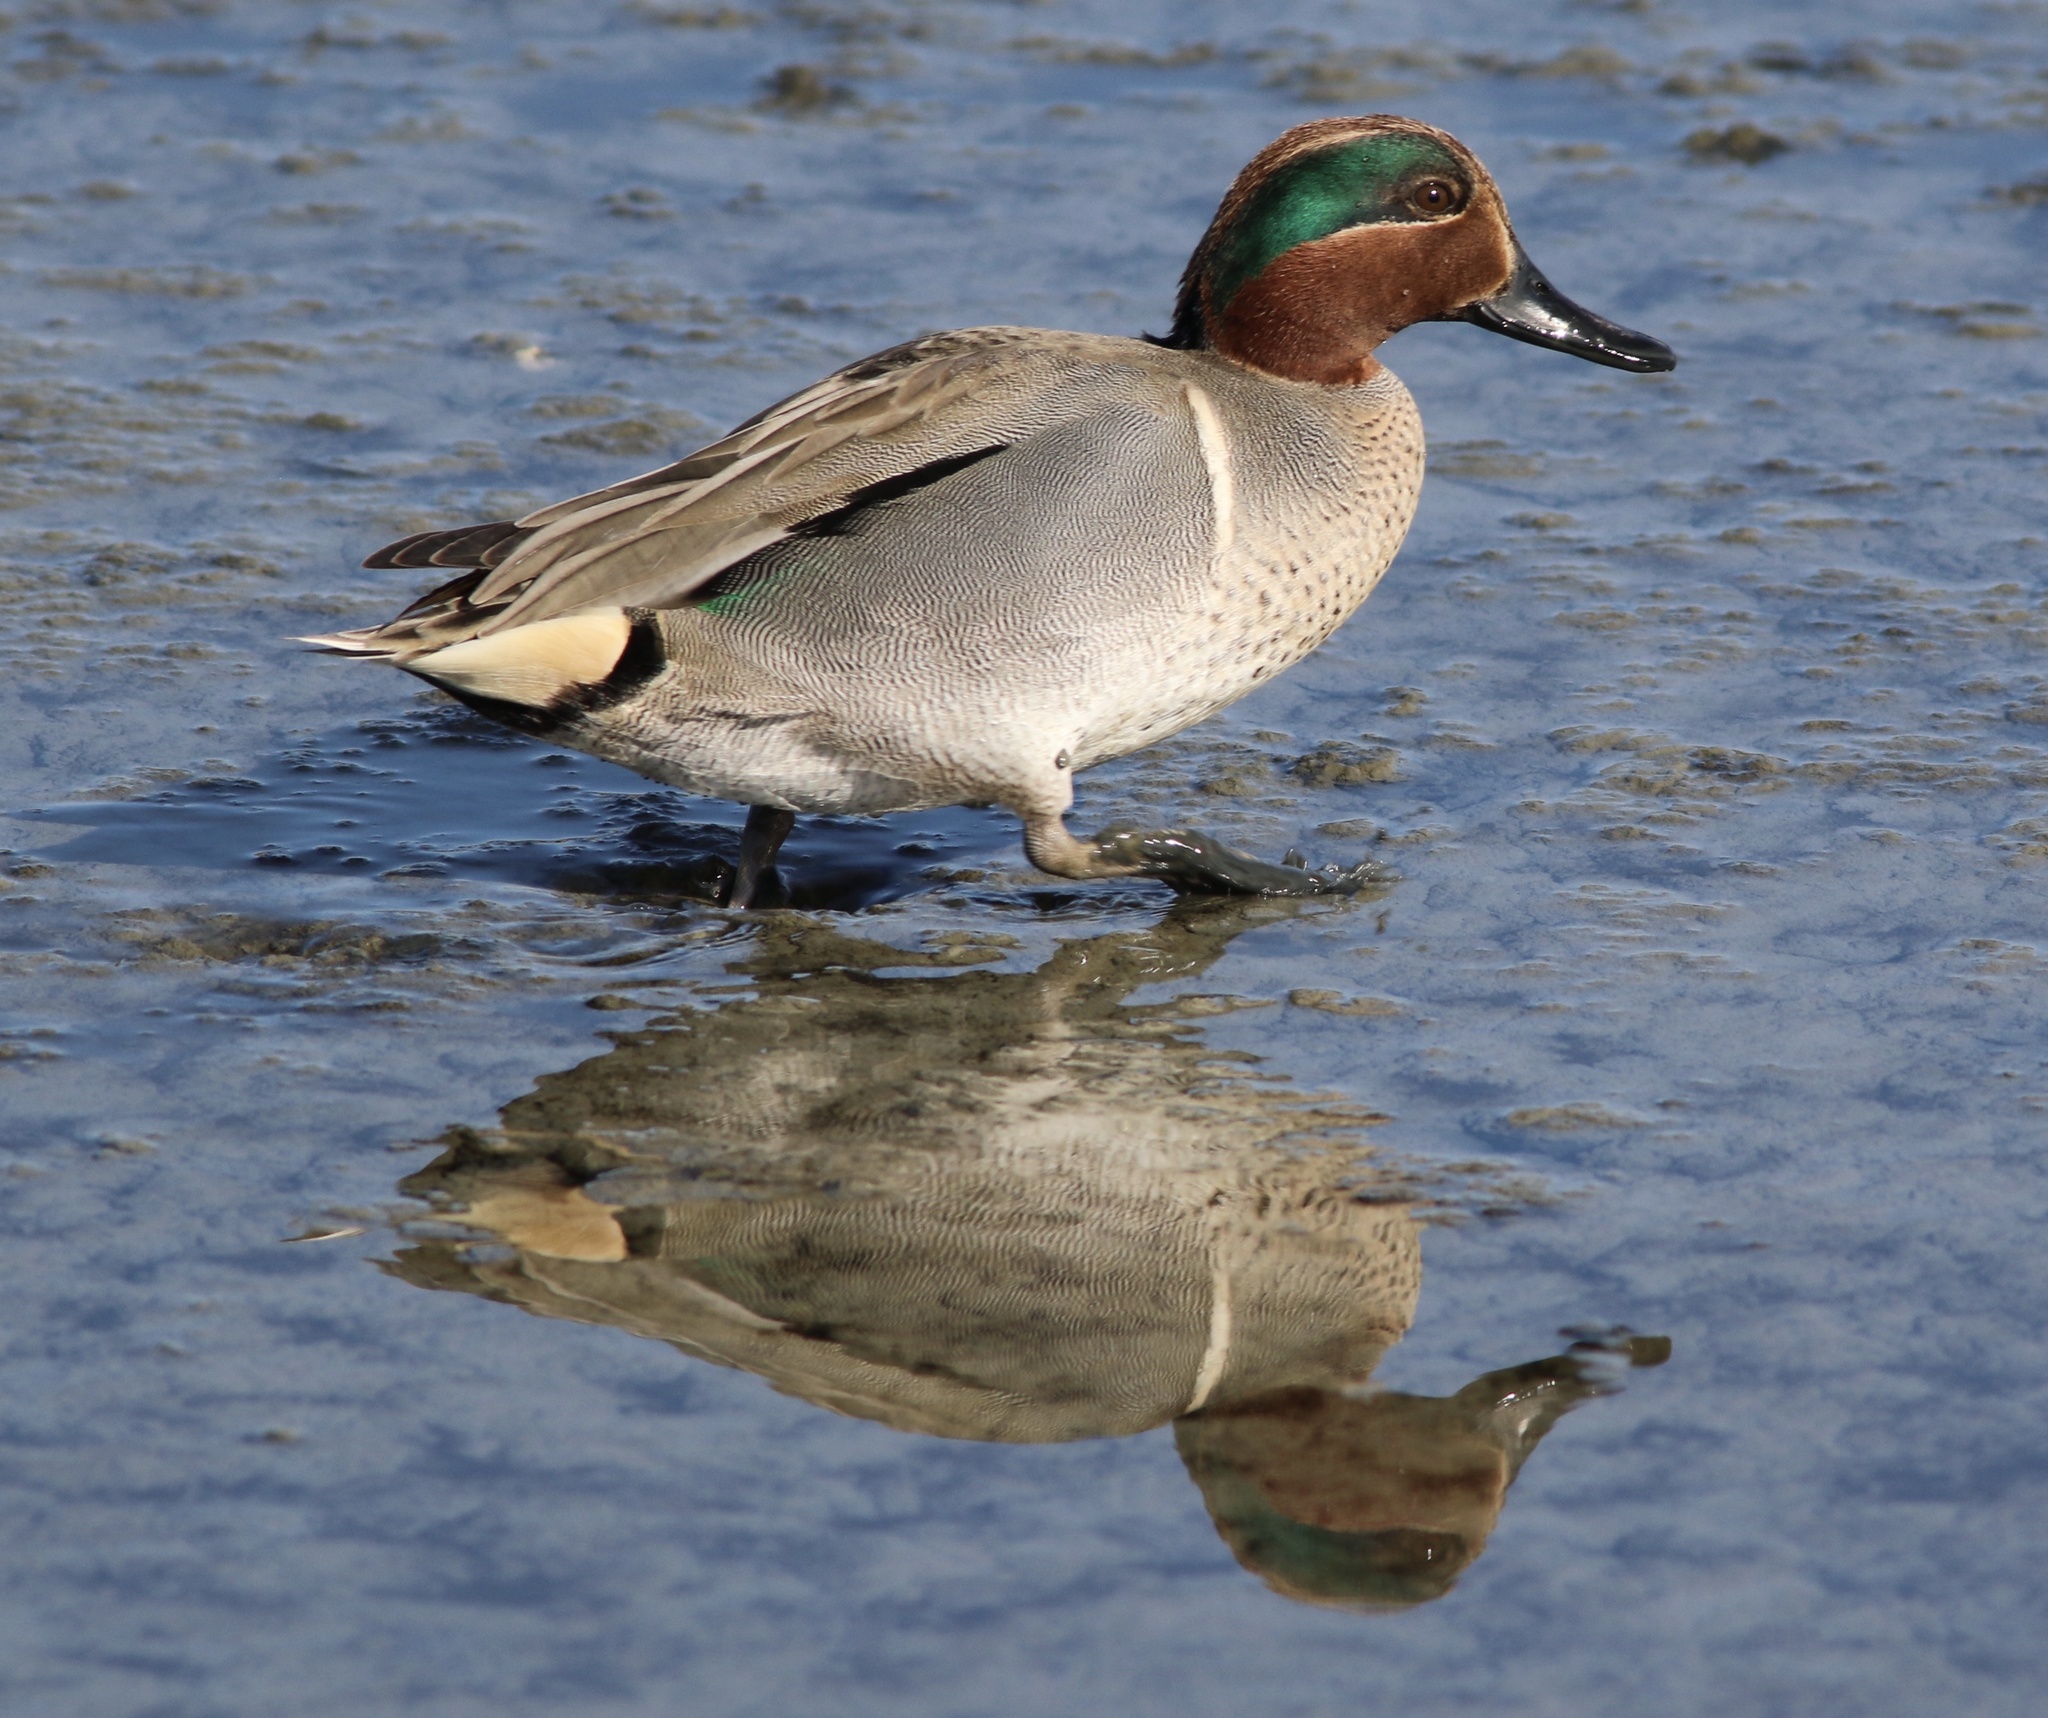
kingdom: Animalia
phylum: Chordata
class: Aves
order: Anseriformes
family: Anatidae
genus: Anas
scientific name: Anas crecca
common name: Eurasian teal
